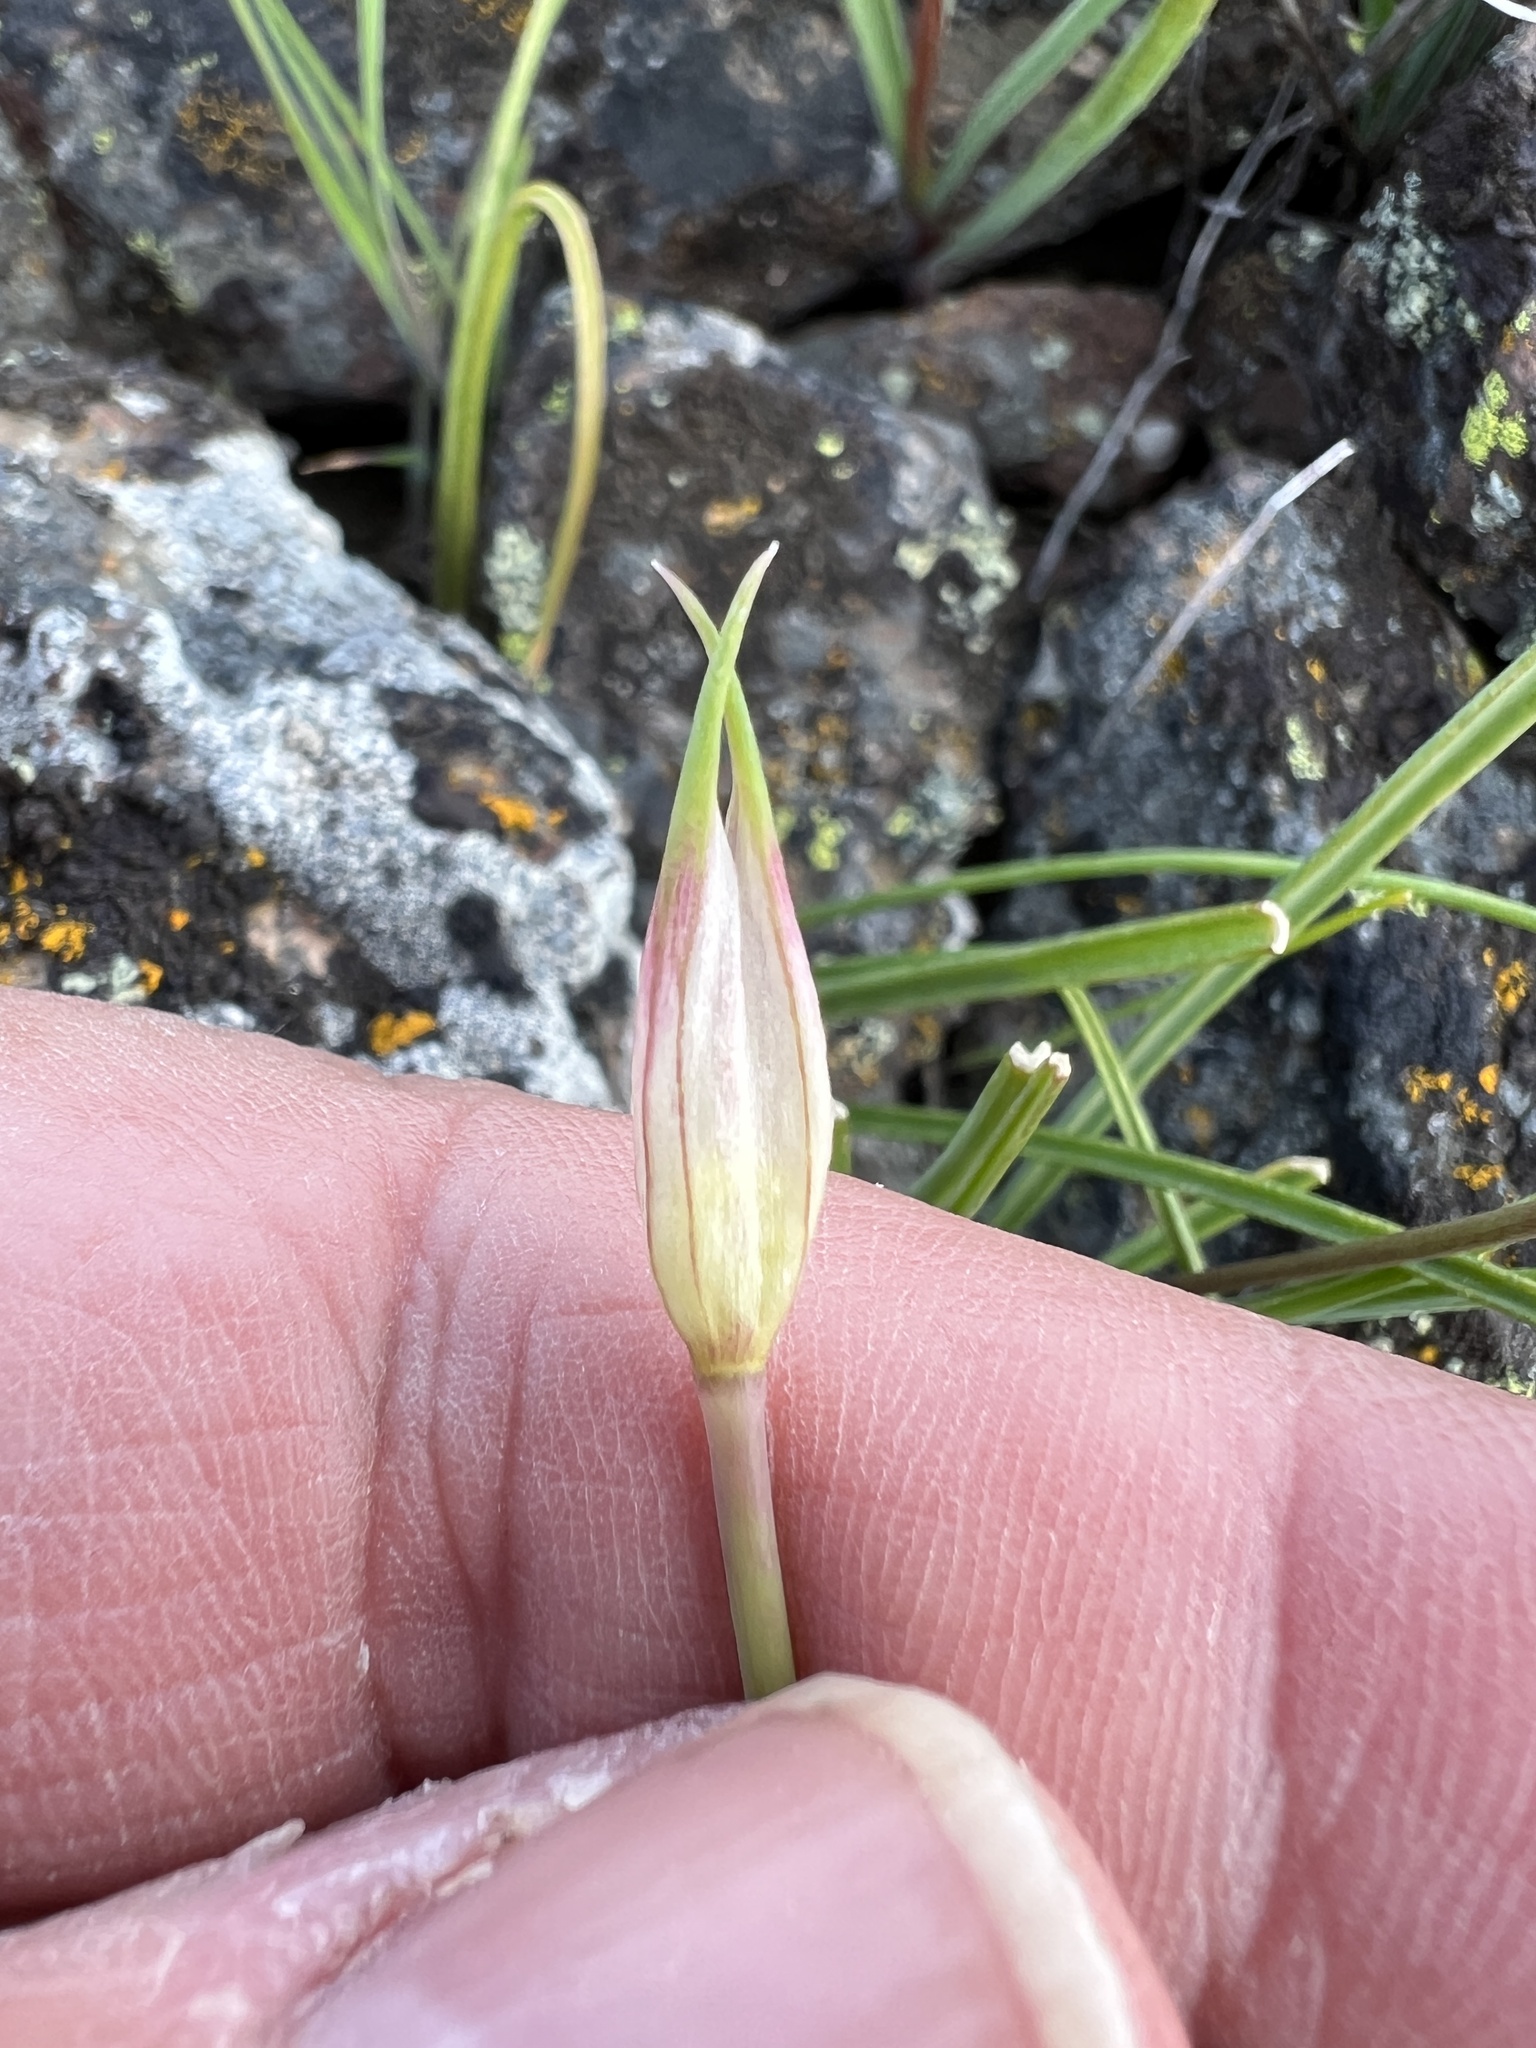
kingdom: Plantae
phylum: Tracheophyta
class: Liliopsida
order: Asparagales
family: Amaryllidaceae
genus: Allium
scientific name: Allium acuminatum
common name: Hooker's onion
